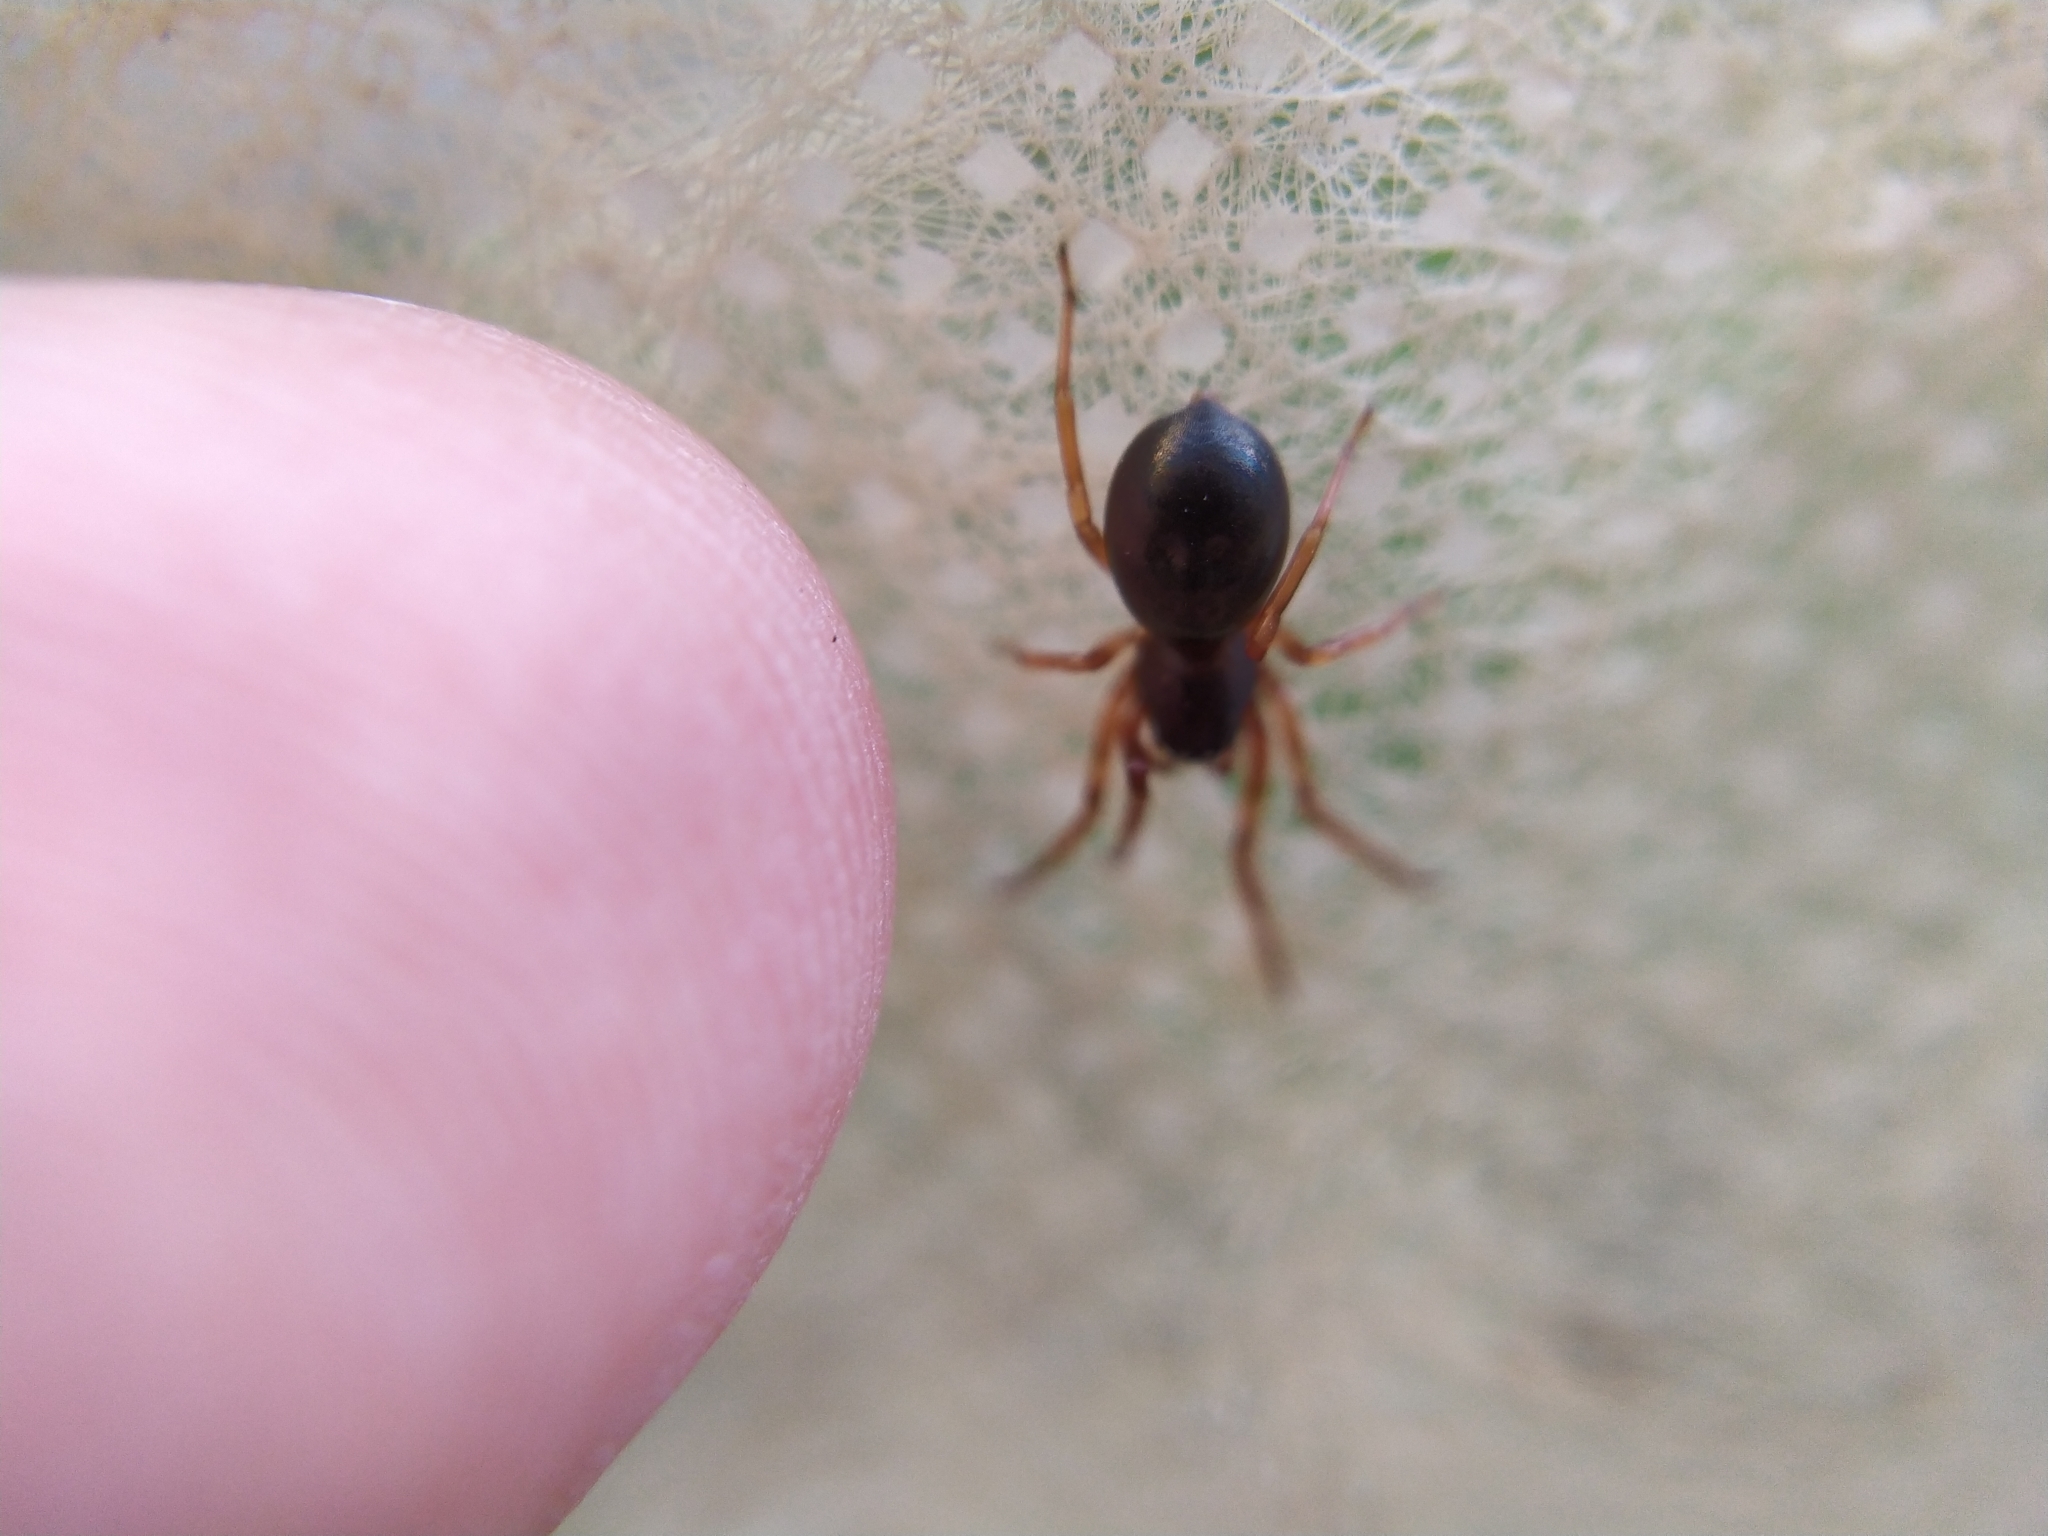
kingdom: Animalia
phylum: Arthropoda
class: Arachnida
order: Araneae
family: Trachelidae
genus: Cetonana
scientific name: Cetonana laticeps
